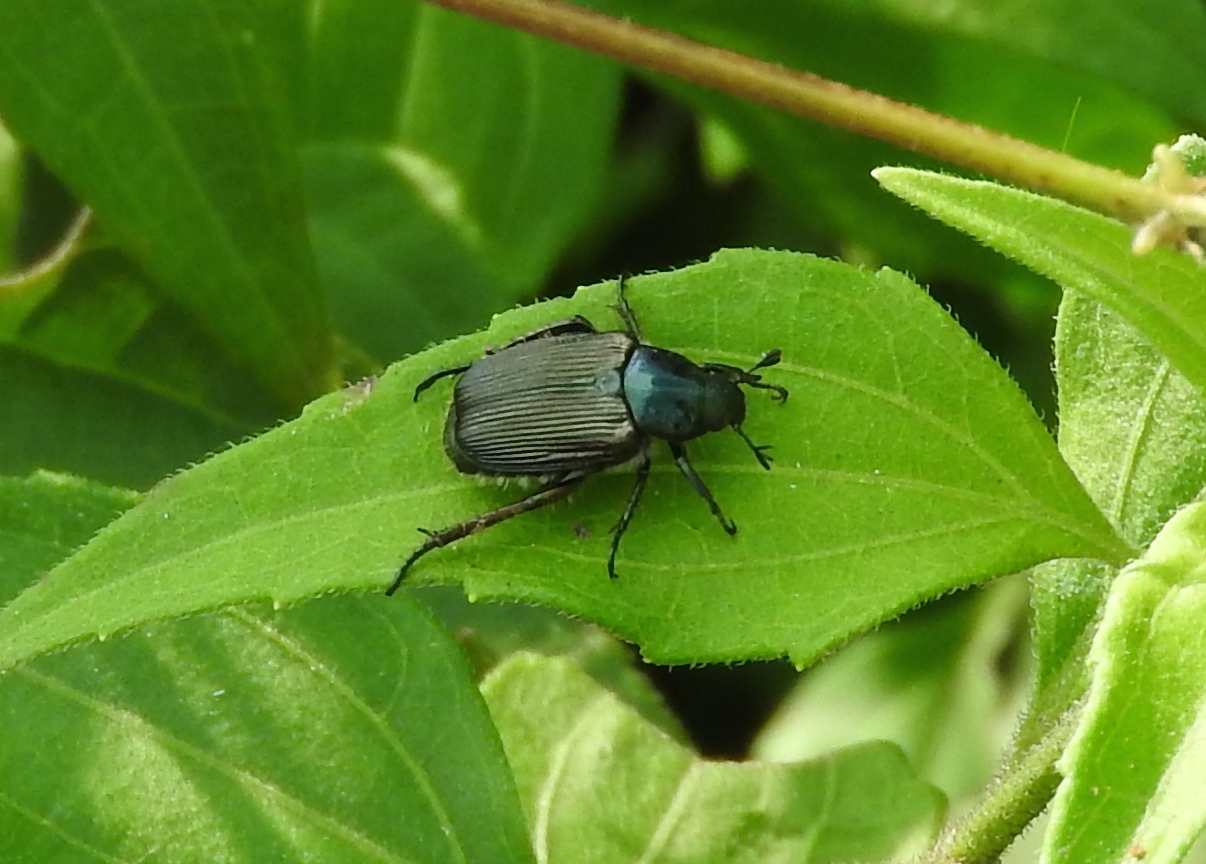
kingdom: Animalia
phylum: Arthropoda
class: Insecta
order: Coleoptera
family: Scarabaeidae
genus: Strigoderma
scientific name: Strigoderma sulcipennis
